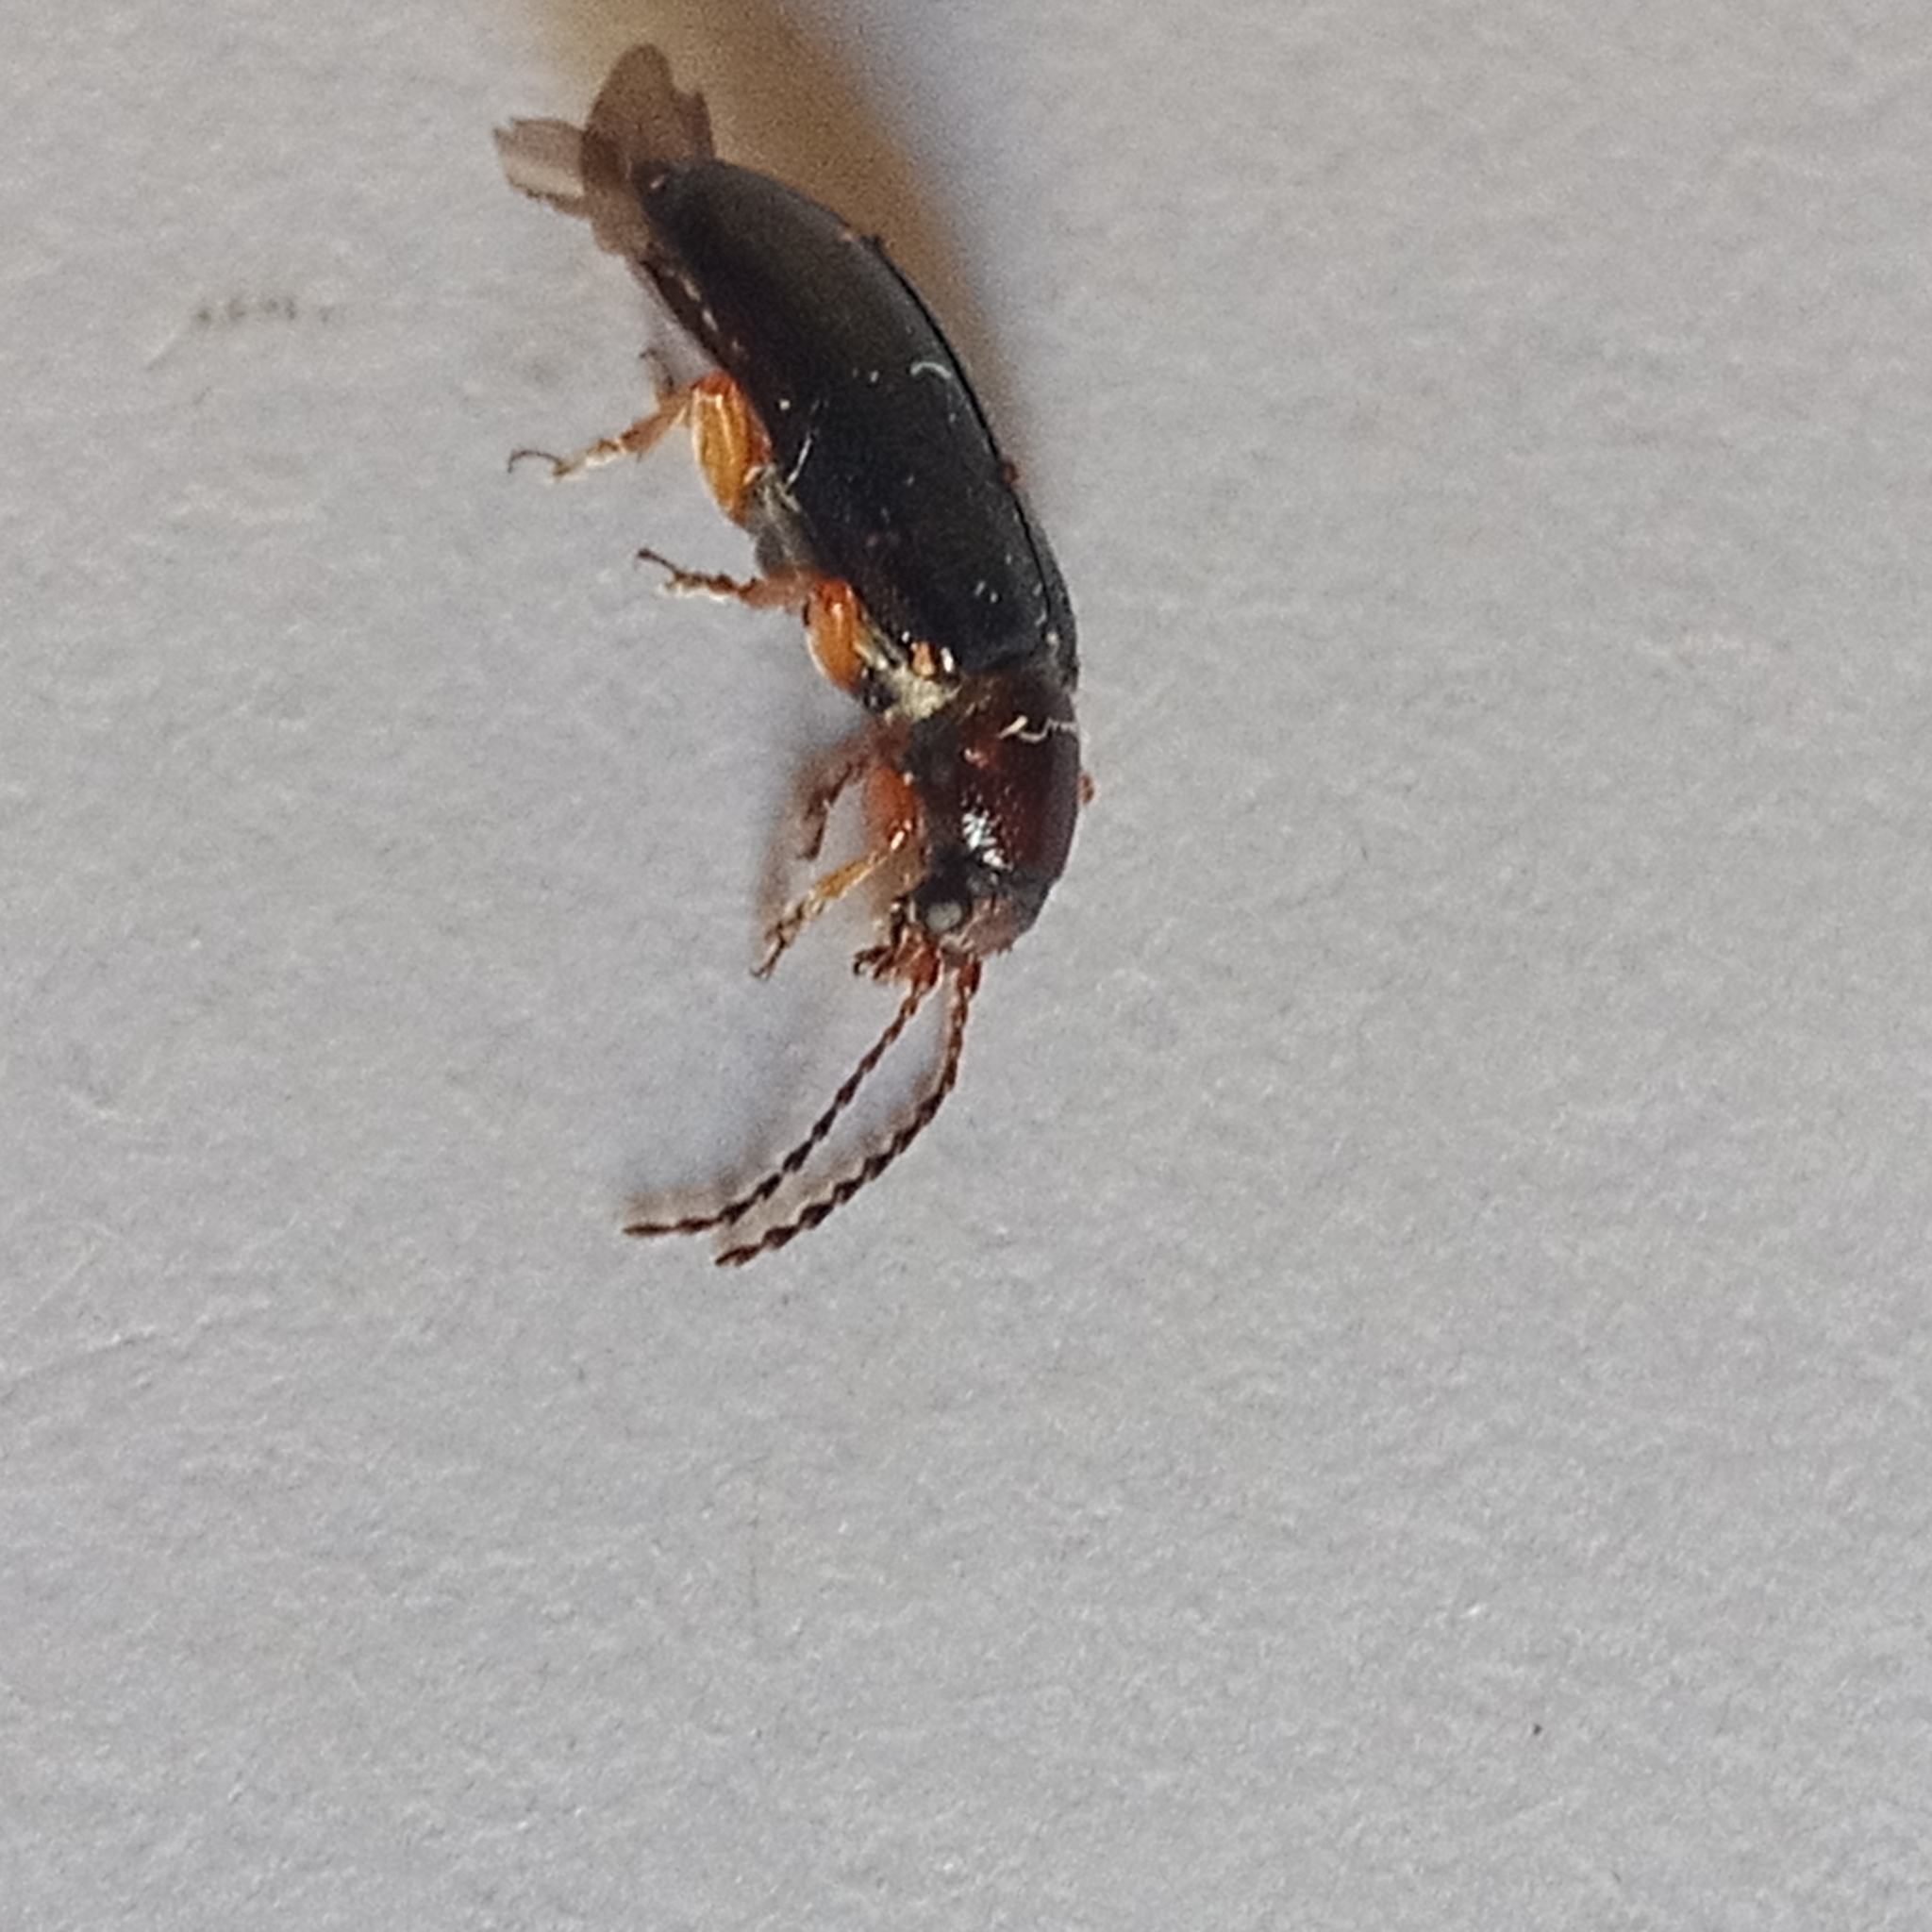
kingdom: Animalia
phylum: Arthropoda
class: Insecta
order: Coleoptera
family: Orsodacnidae
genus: Orsodacne
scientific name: Orsodacne cerasi
